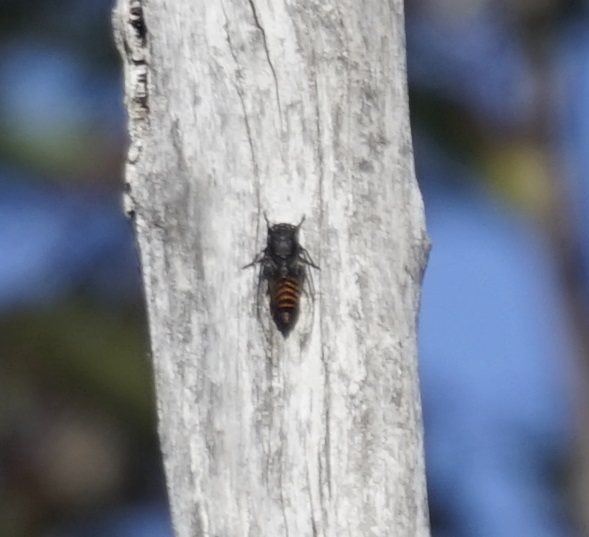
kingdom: Animalia
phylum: Arthropoda
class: Insecta
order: Hemiptera
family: Cicadidae
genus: Pauropsalta
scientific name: Pauropsalta mneme
